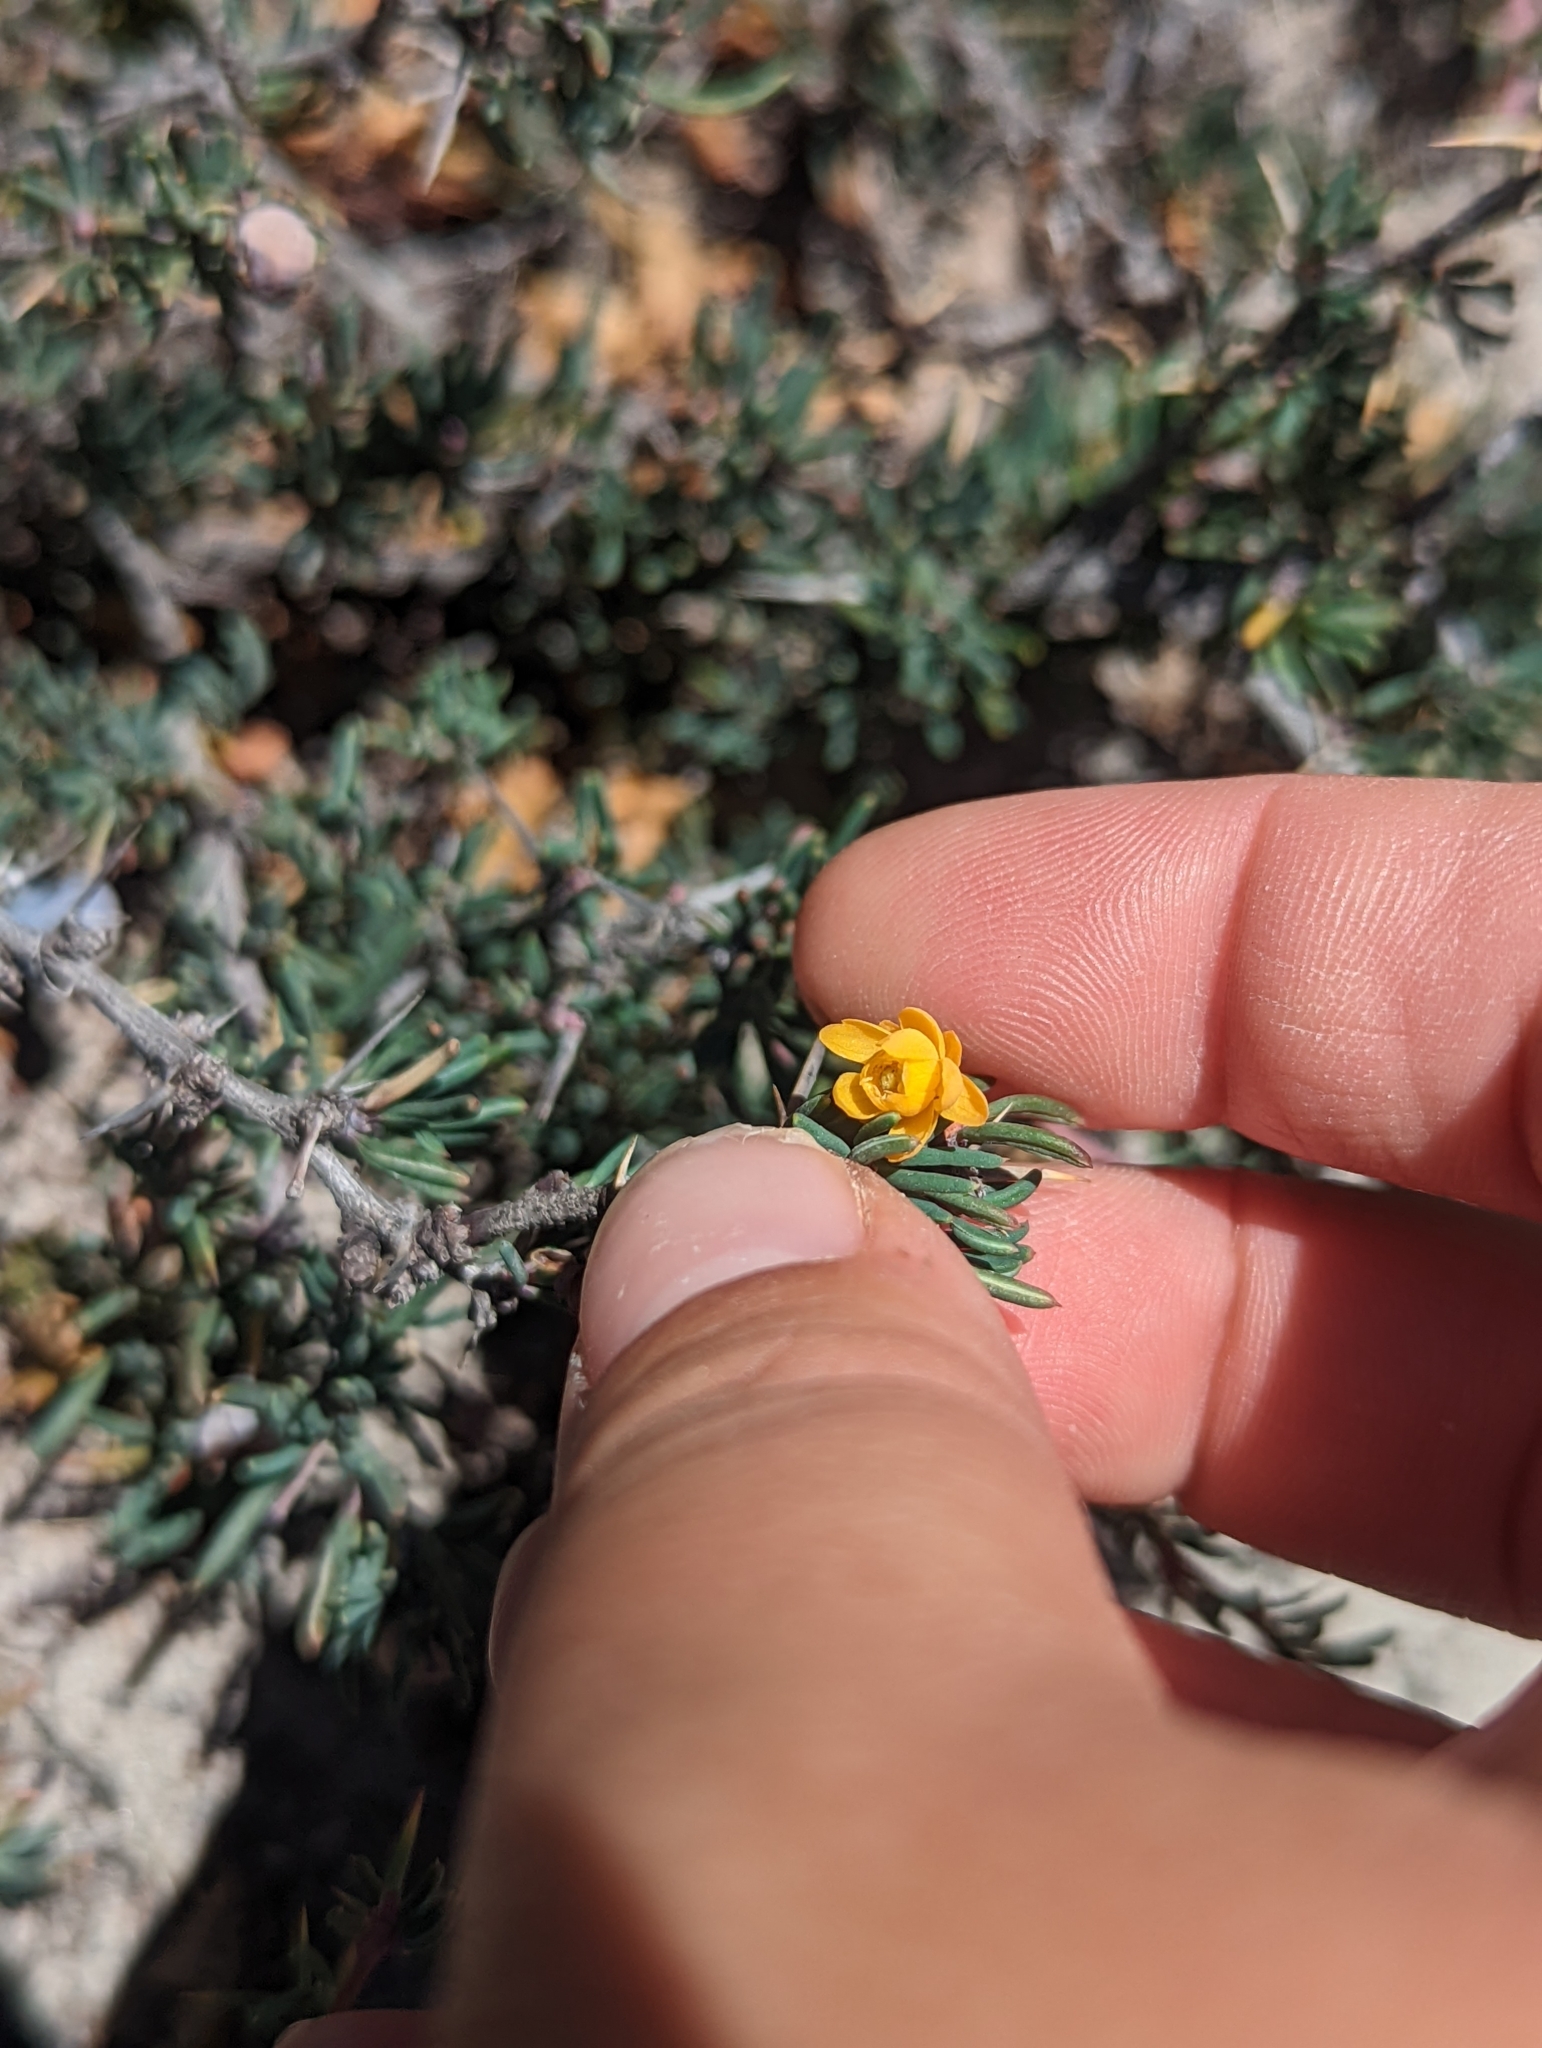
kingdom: Plantae
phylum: Tracheophyta
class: Magnoliopsida
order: Ranunculales
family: Berberidaceae
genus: Berberis
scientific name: Berberis empetrifolia
